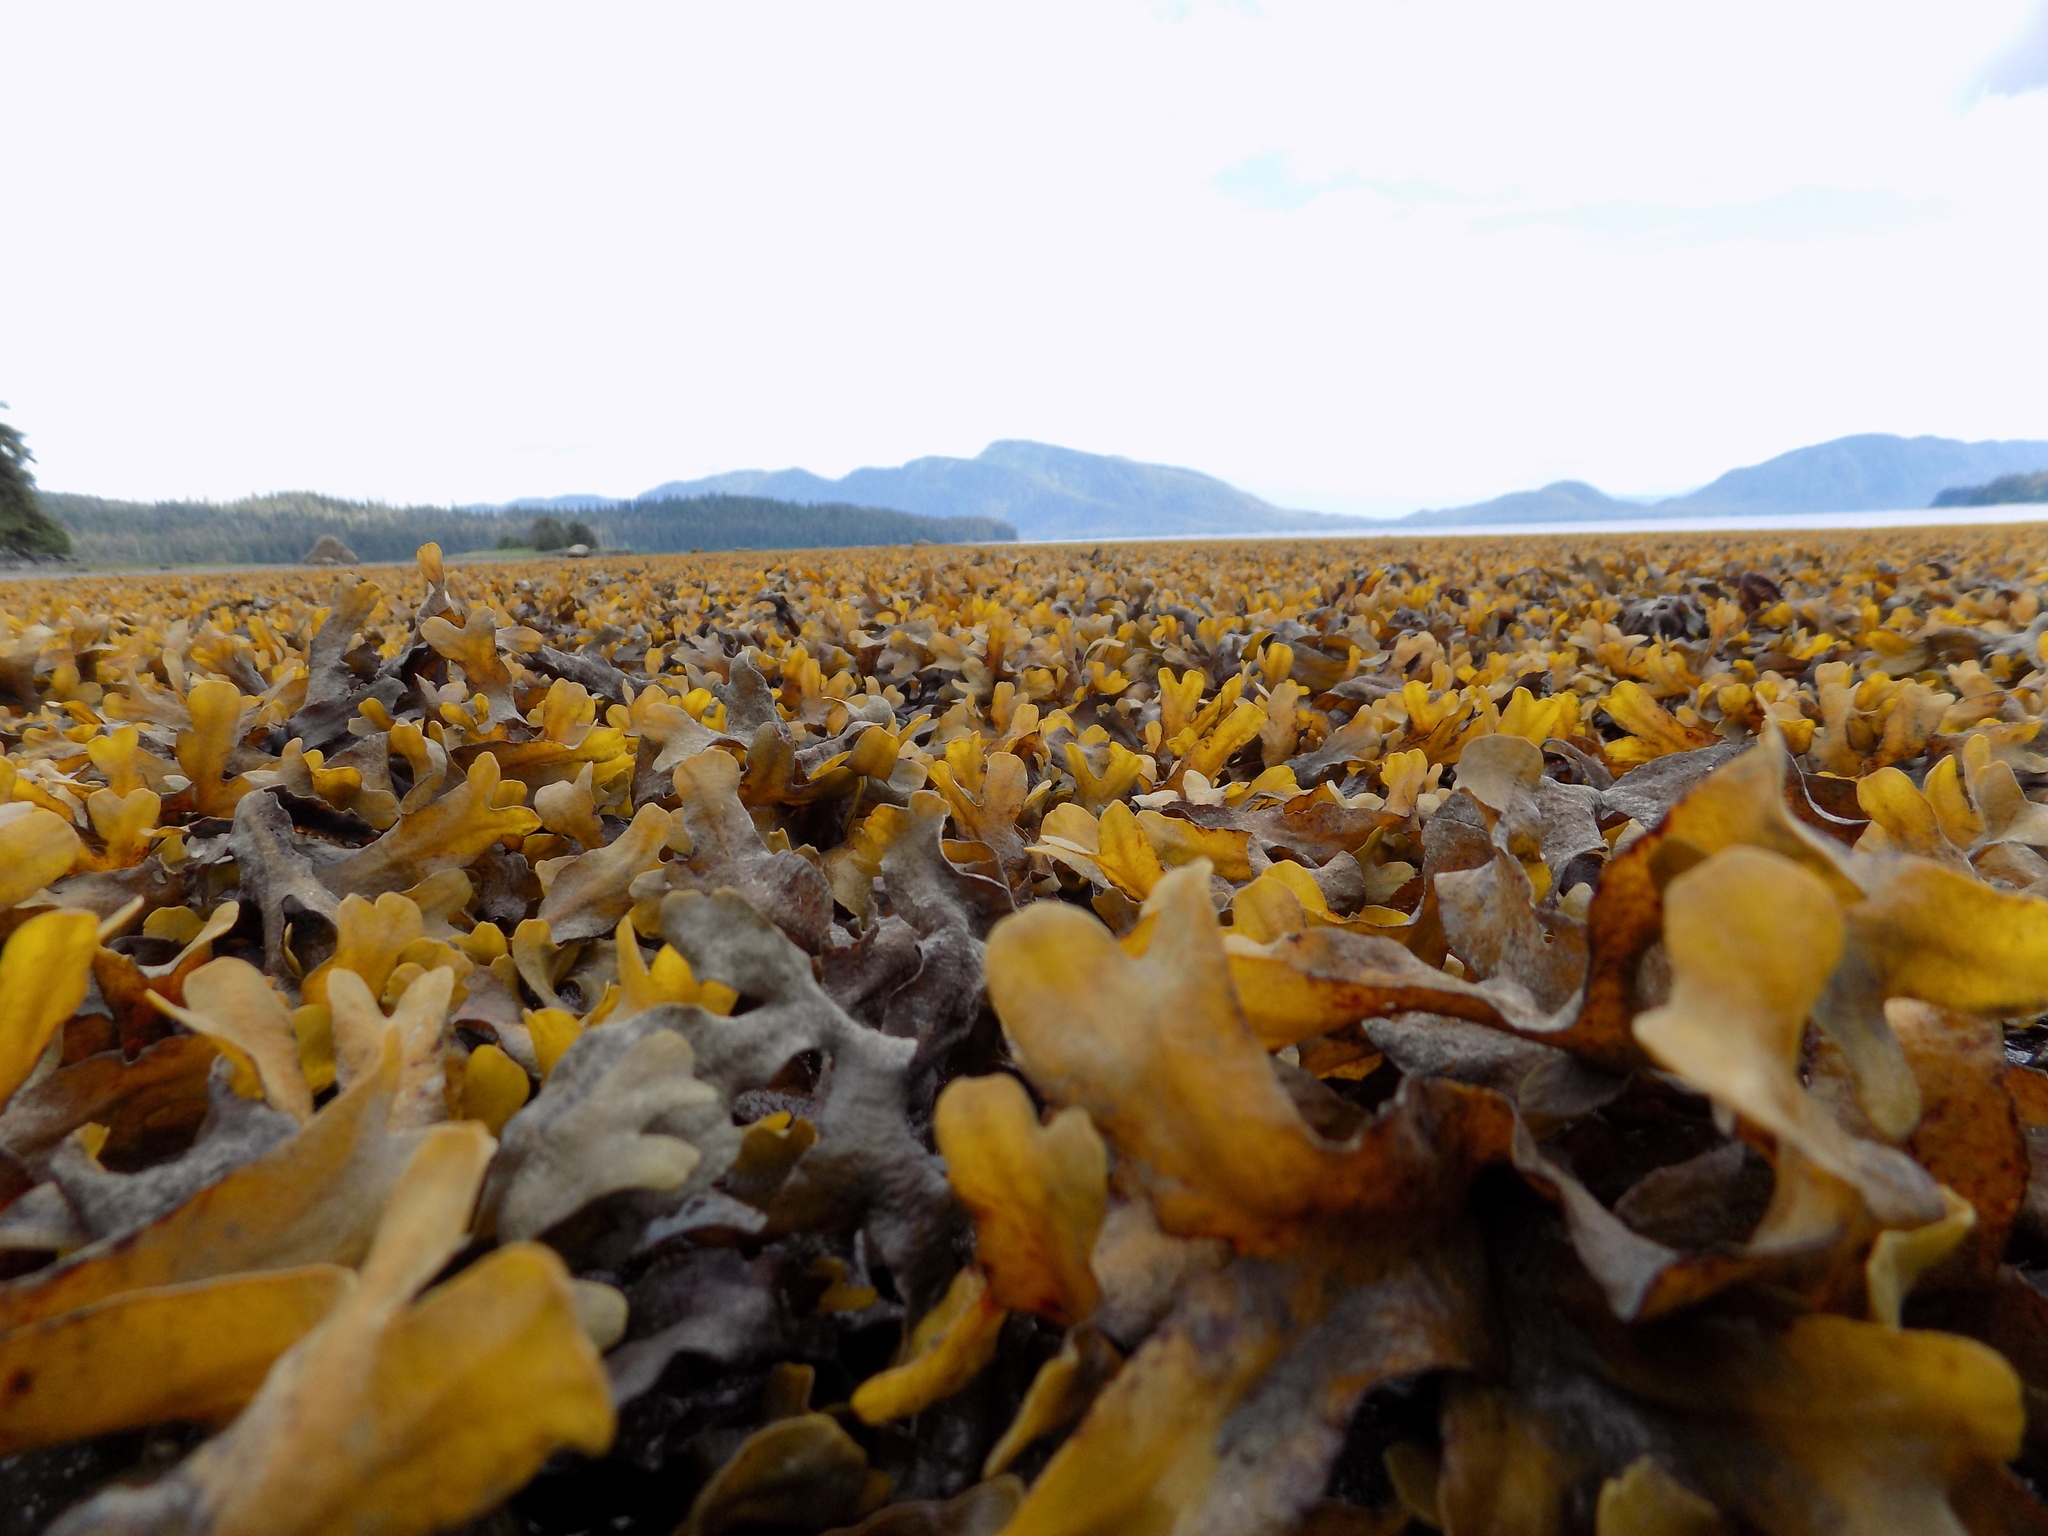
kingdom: Chromista
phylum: Ochrophyta
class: Phaeophyceae
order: Fucales
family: Fucaceae
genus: Fucus
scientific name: Fucus distichus
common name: Rockweed
